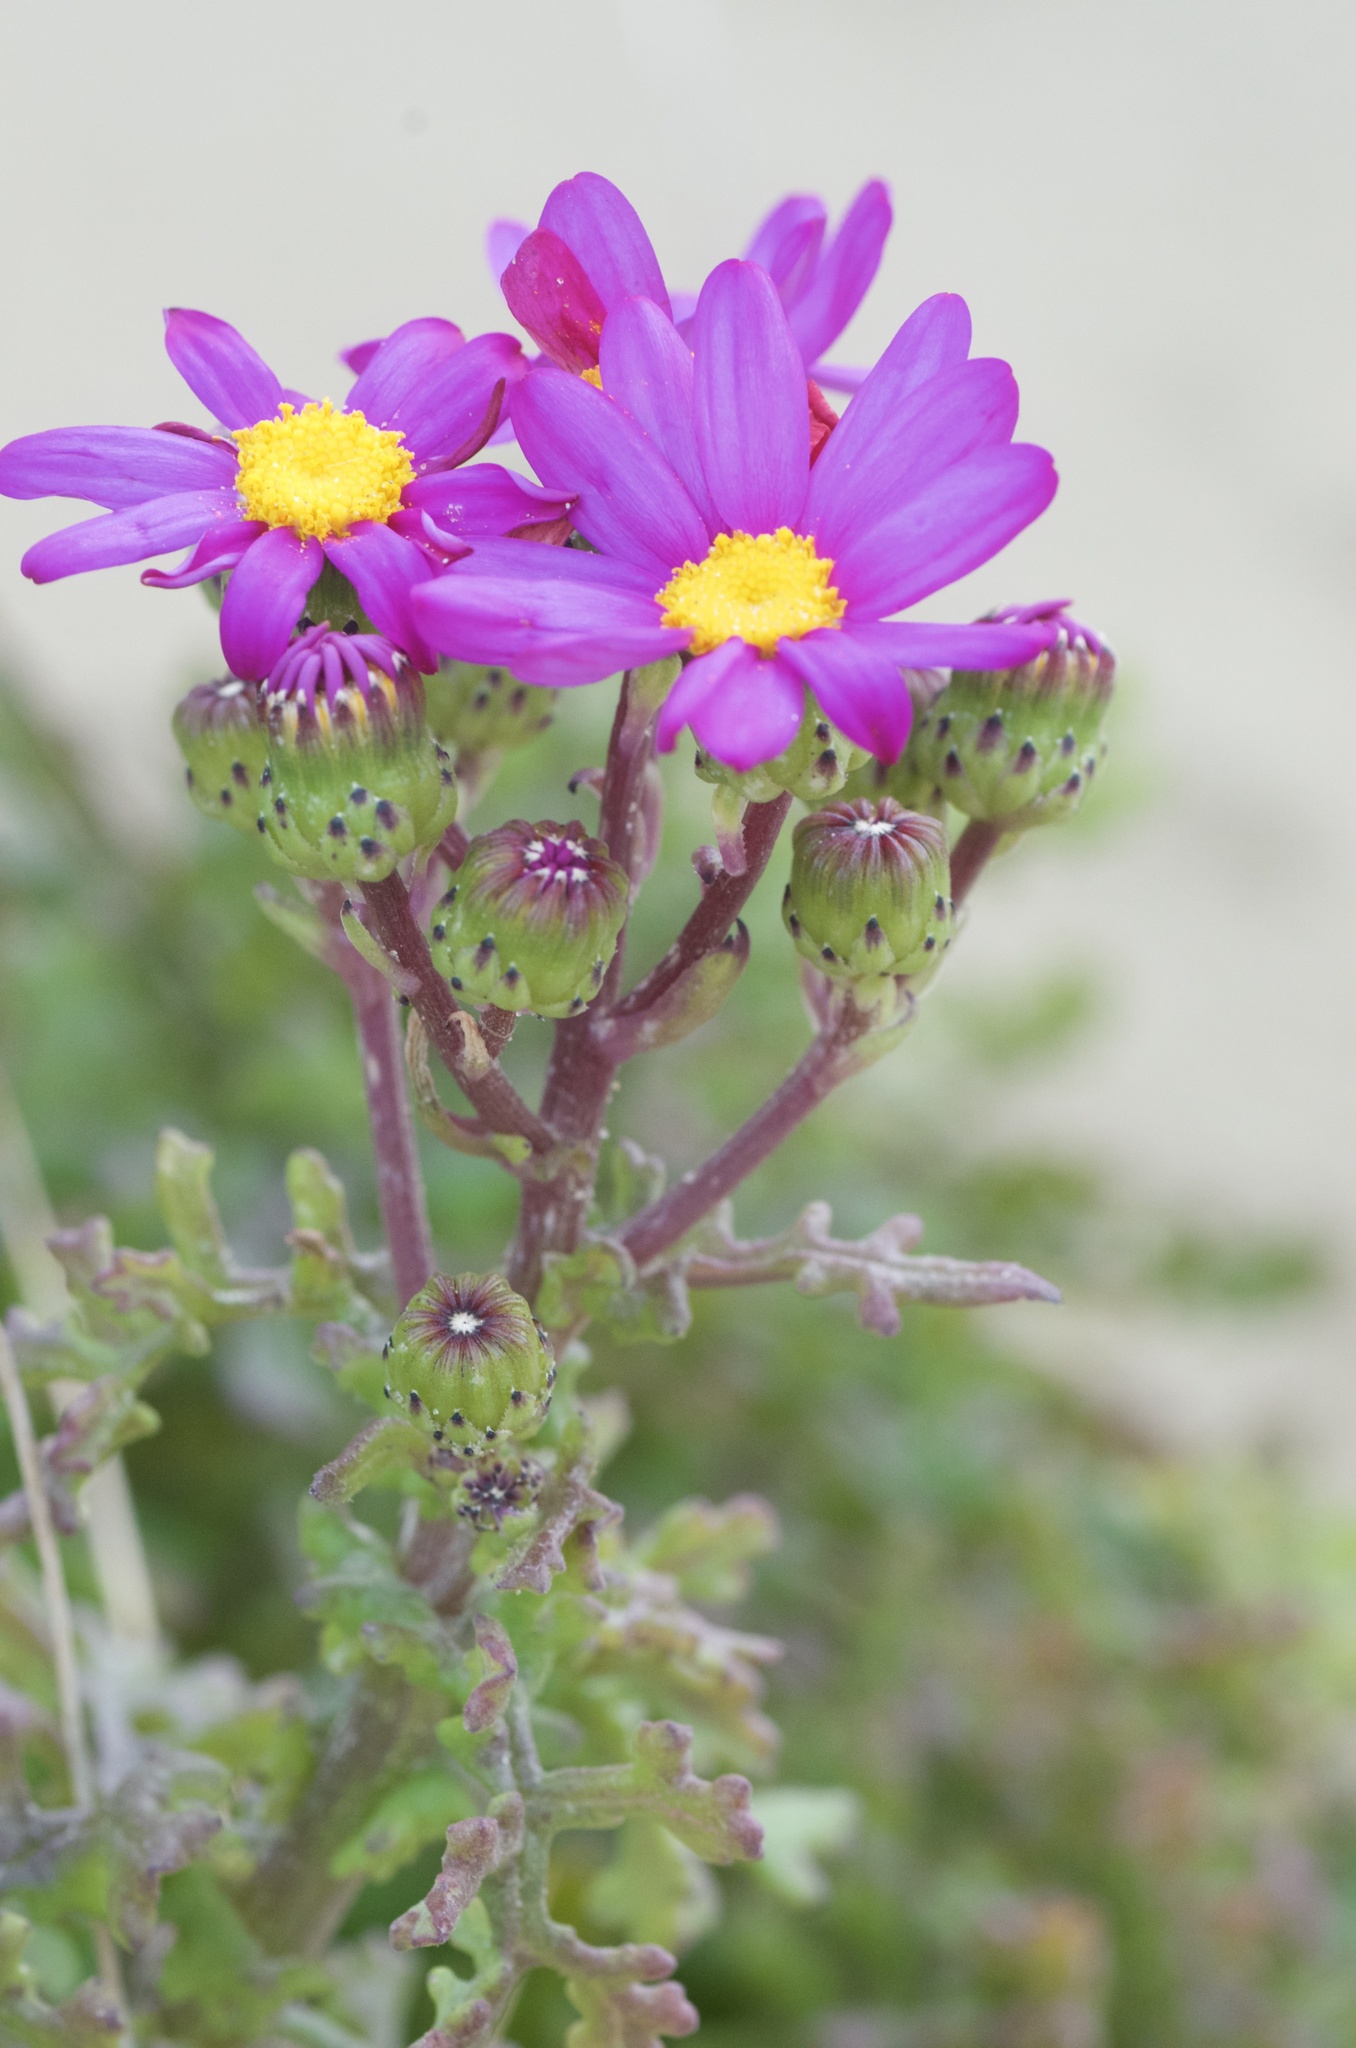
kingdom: Plantae
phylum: Tracheophyta
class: Magnoliopsida
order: Asterales
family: Asteraceae
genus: Senecio
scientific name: Senecio elegans
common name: Purple groundsel
